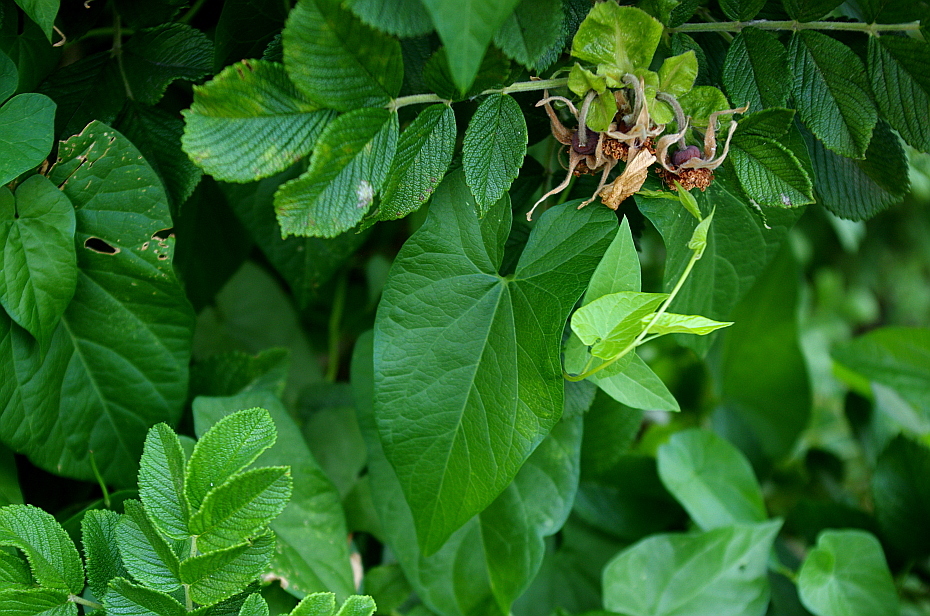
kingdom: Plantae
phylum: Tracheophyta
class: Magnoliopsida
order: Solanales
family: Convolvulaceae
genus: Calystegia
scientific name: Calystegia sepium
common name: Hedge bindweed
